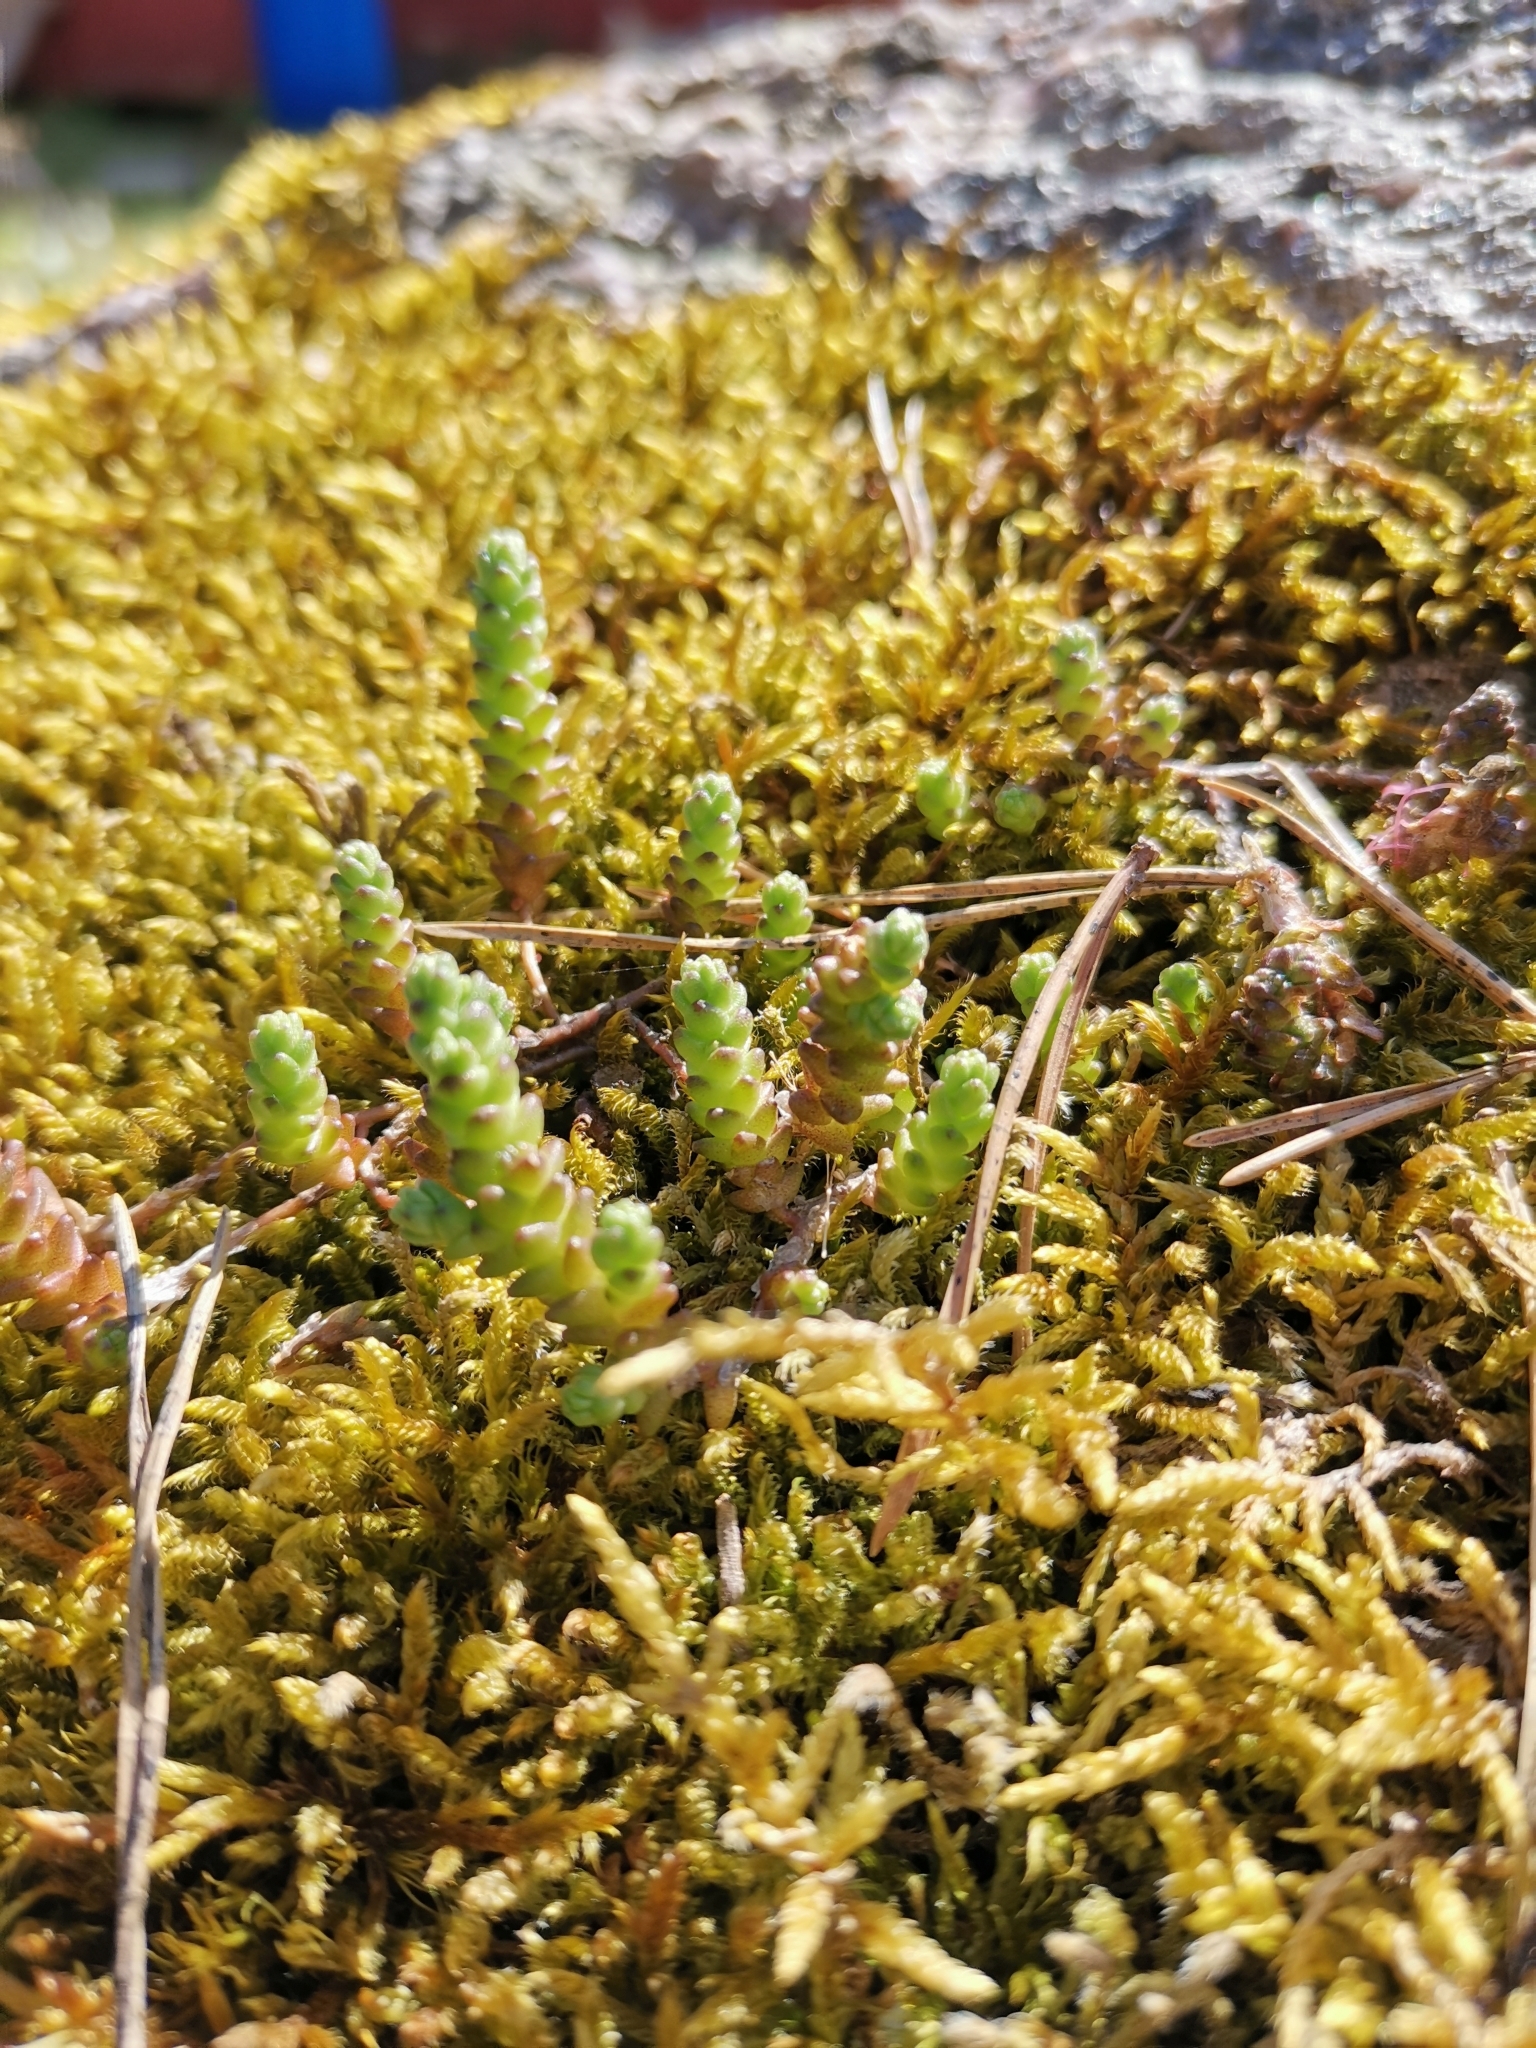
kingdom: Plantae
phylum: Tracheophyta
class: Magnoliopsida
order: Saxifragales
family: Crassulaceae
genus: Sedum
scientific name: Sedum acre
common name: Biting stonecrop
